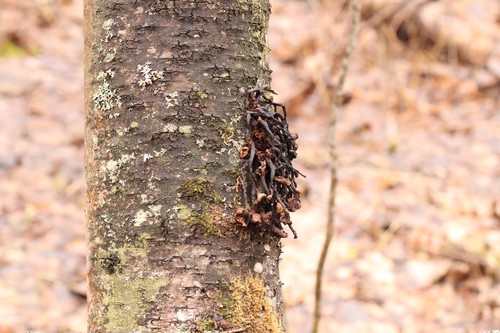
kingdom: Fungi
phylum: Basidiomycota
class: Agaricomycetes
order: Agaricales
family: Physalacriaceae
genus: Armillaria
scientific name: Armillaria
